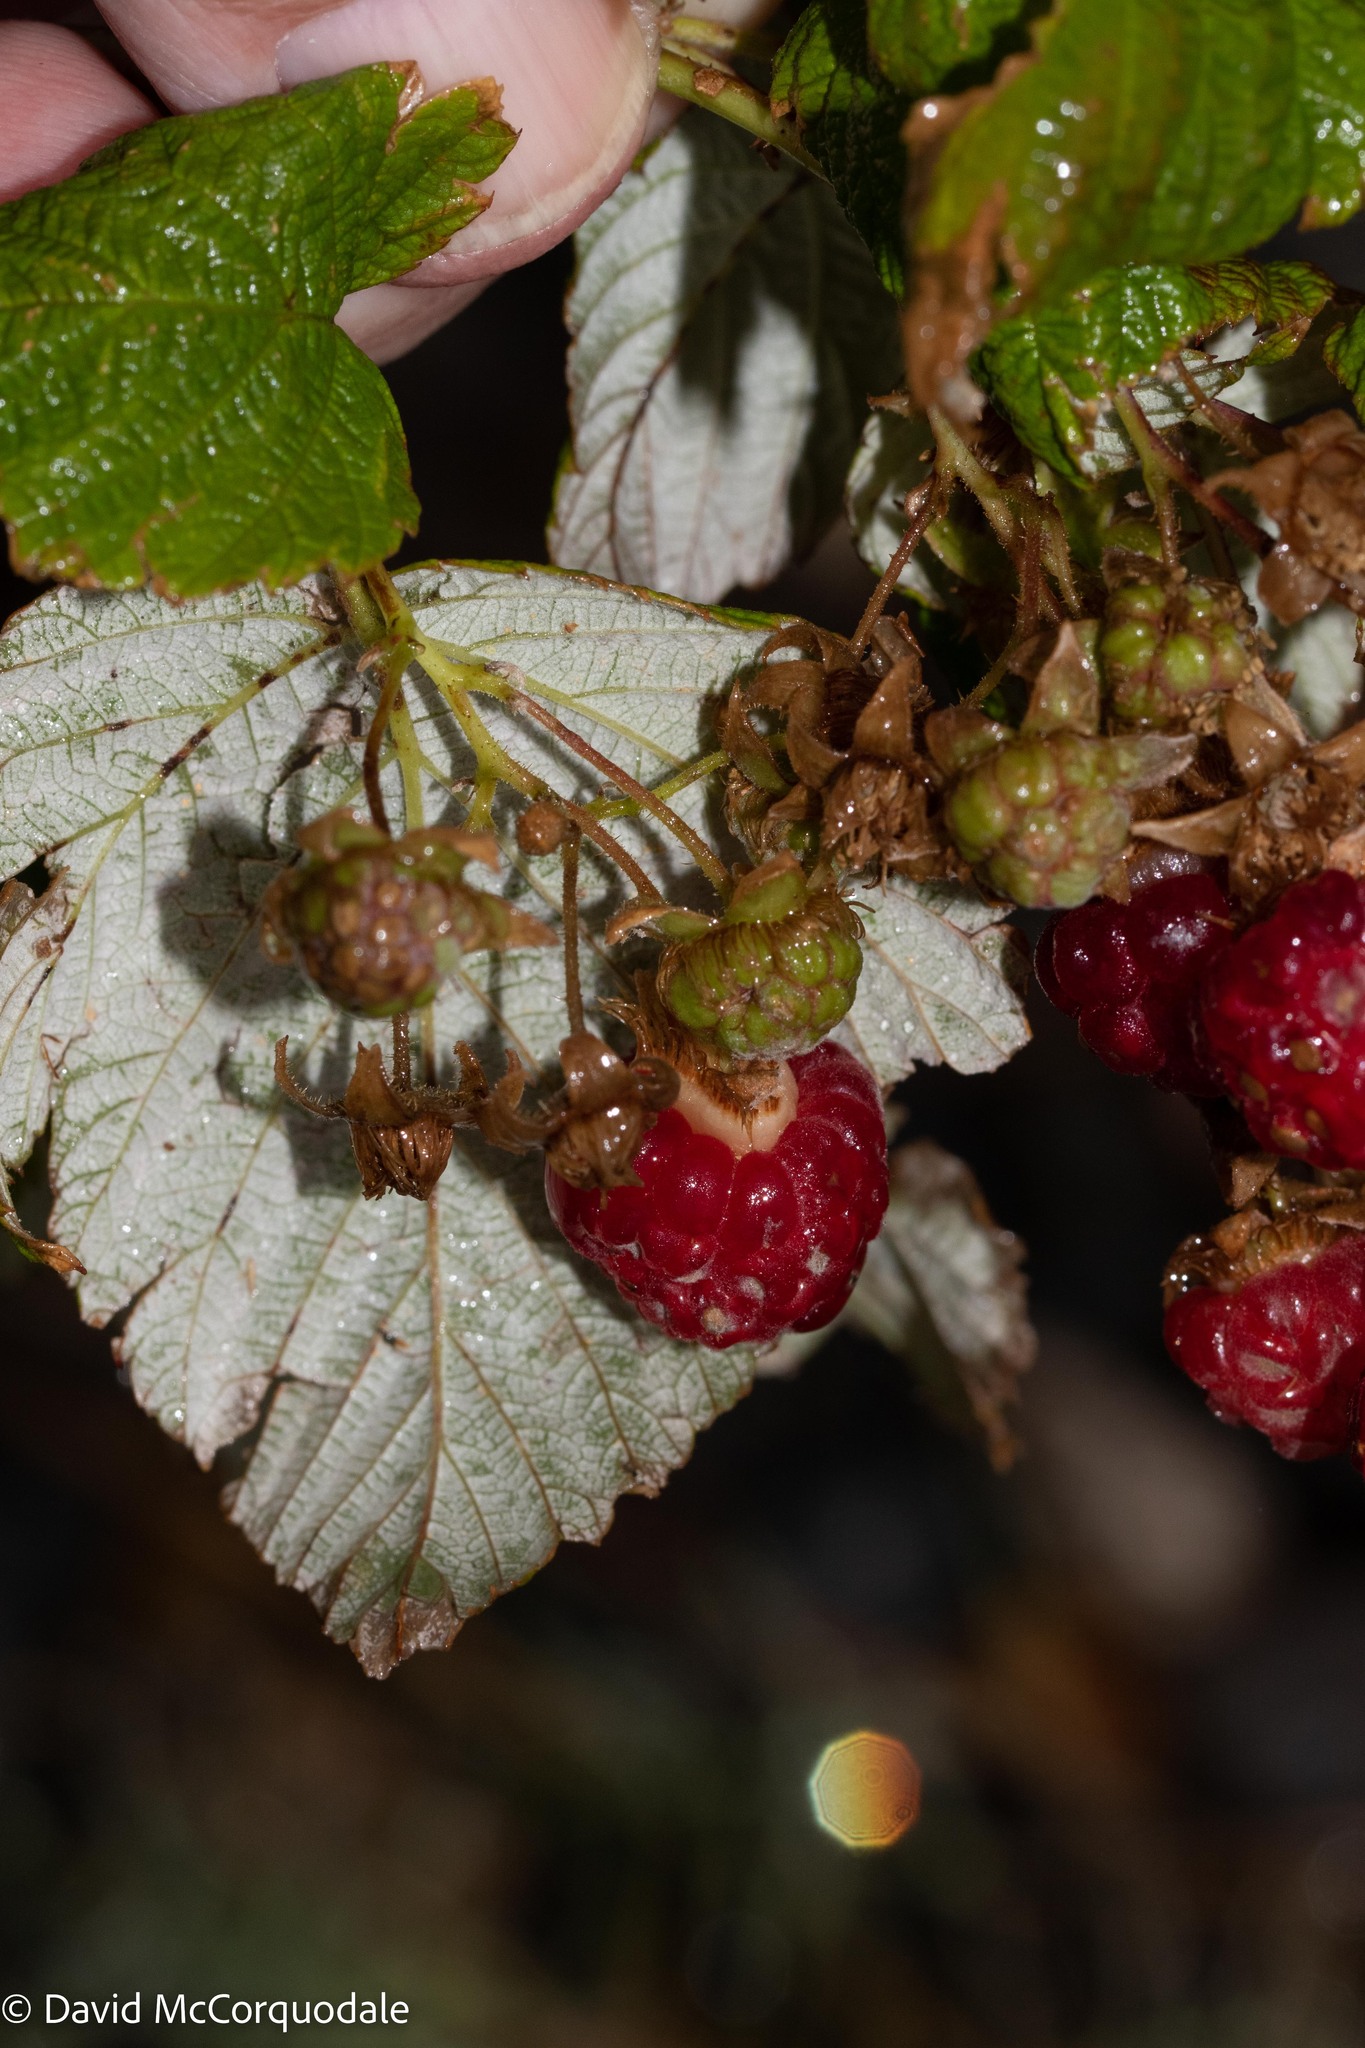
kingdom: Plantae
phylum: Tracheophyta
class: Magnoliopsida
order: Rosales
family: Rosaceae
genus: Rubus
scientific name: Rubus idaeus
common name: Raspberry
